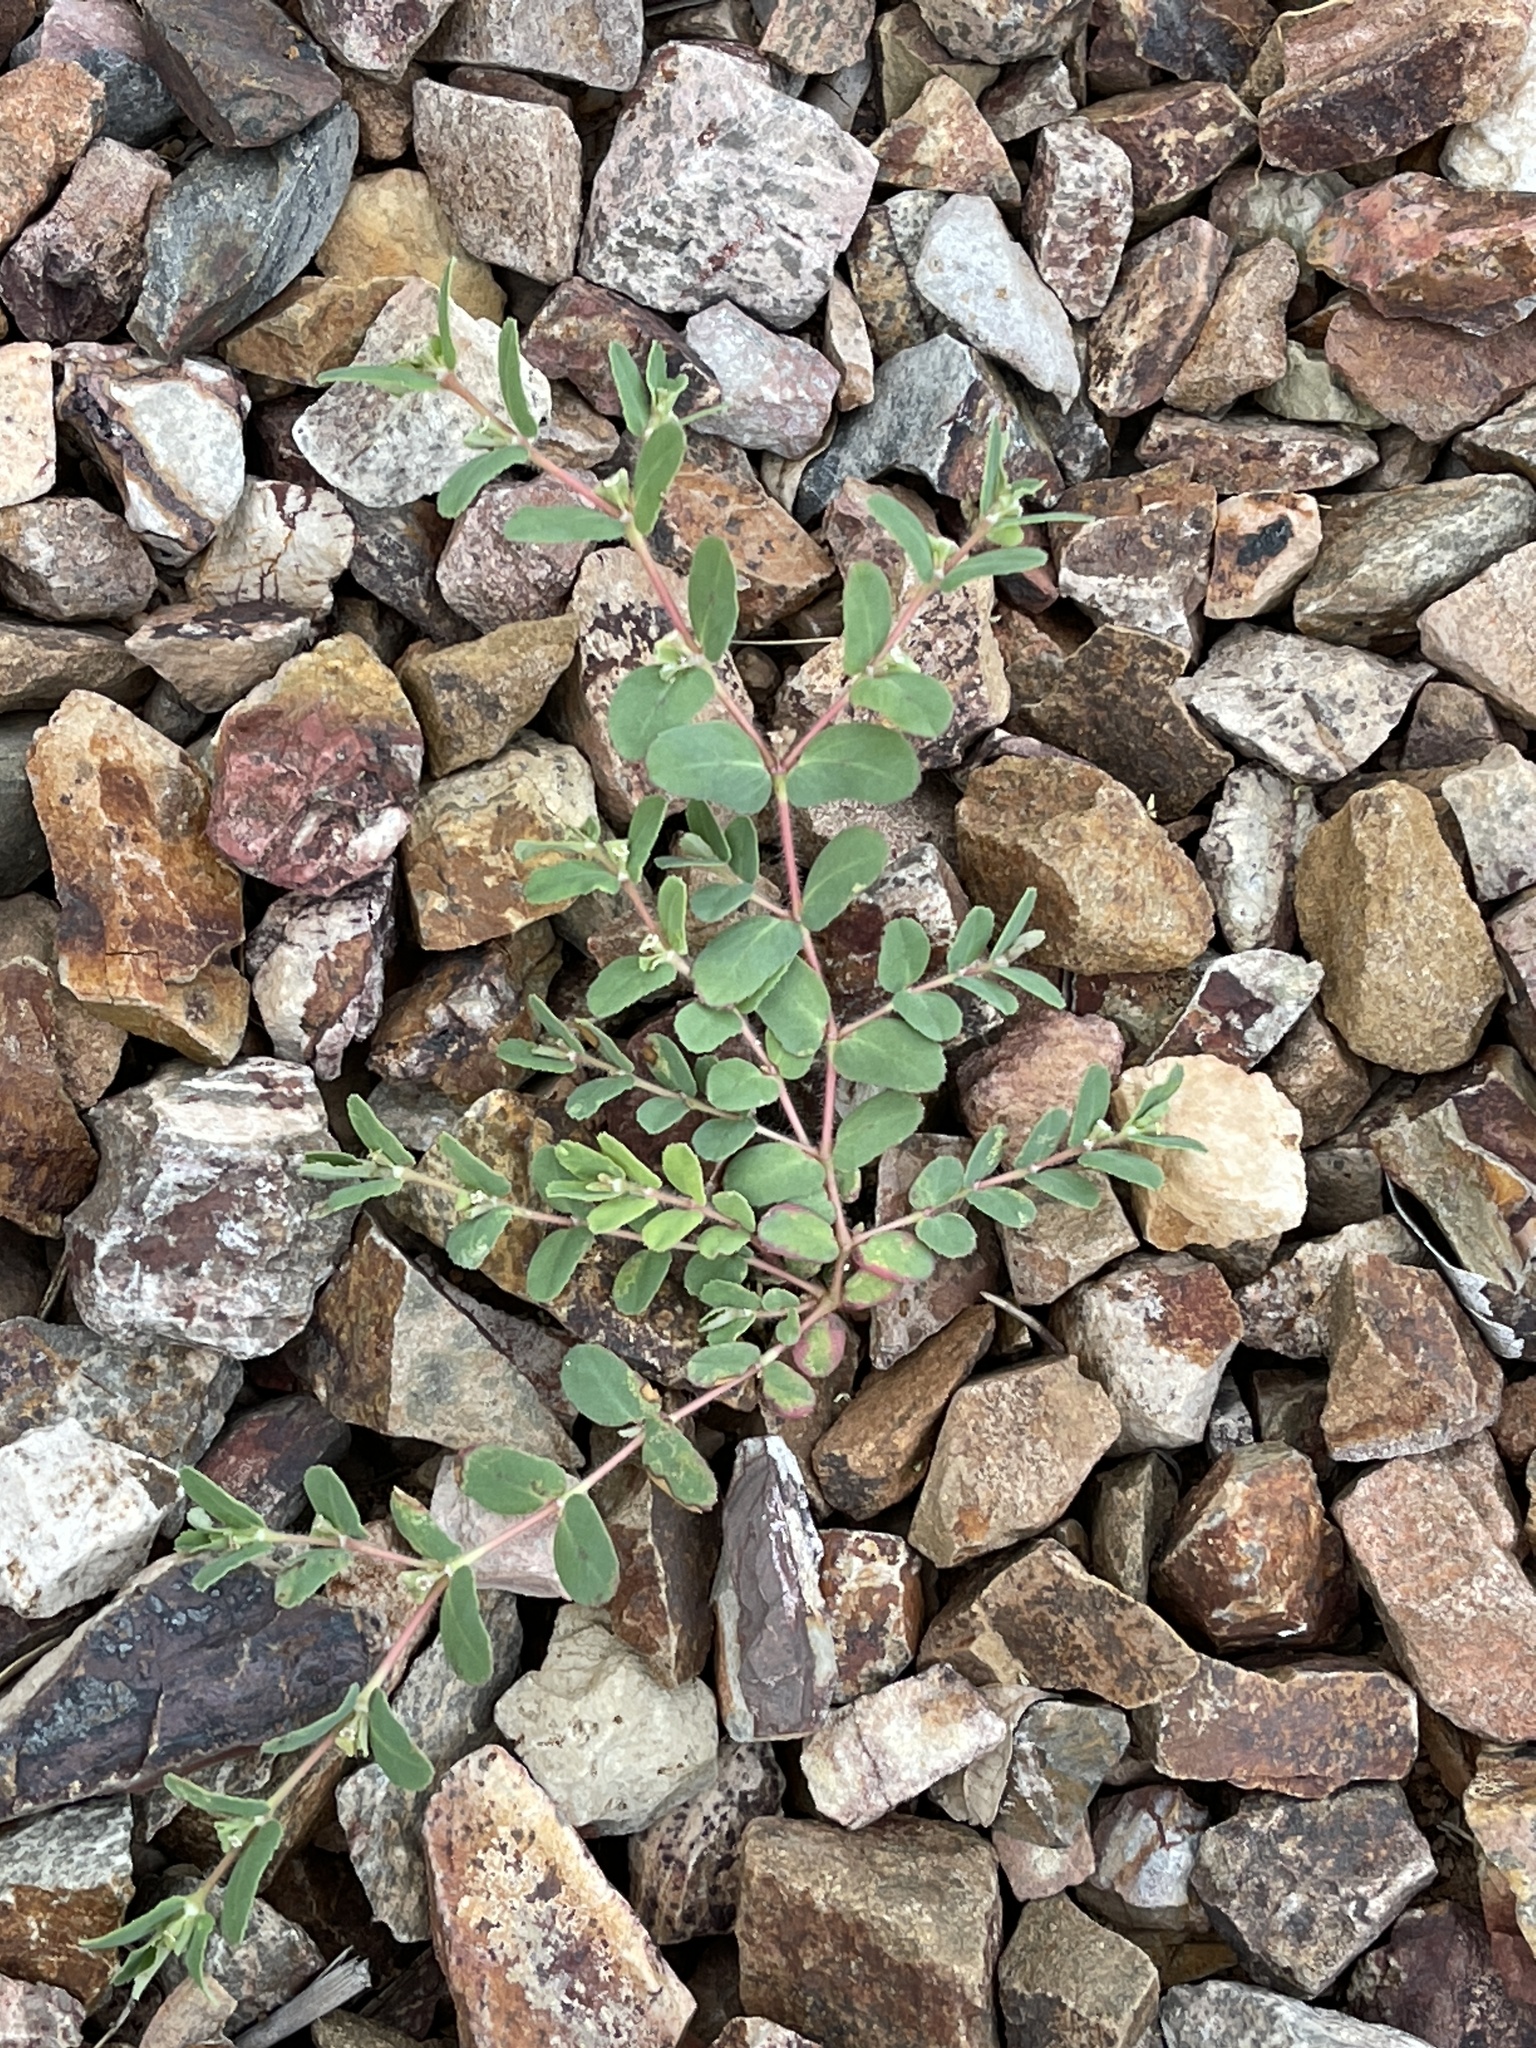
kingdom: Plantae
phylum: Tracheophyta
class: Magnoliopsida
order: Malpighiales
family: Euphorbiaceae
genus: Euphorbia
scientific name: Euphorbia serrula
